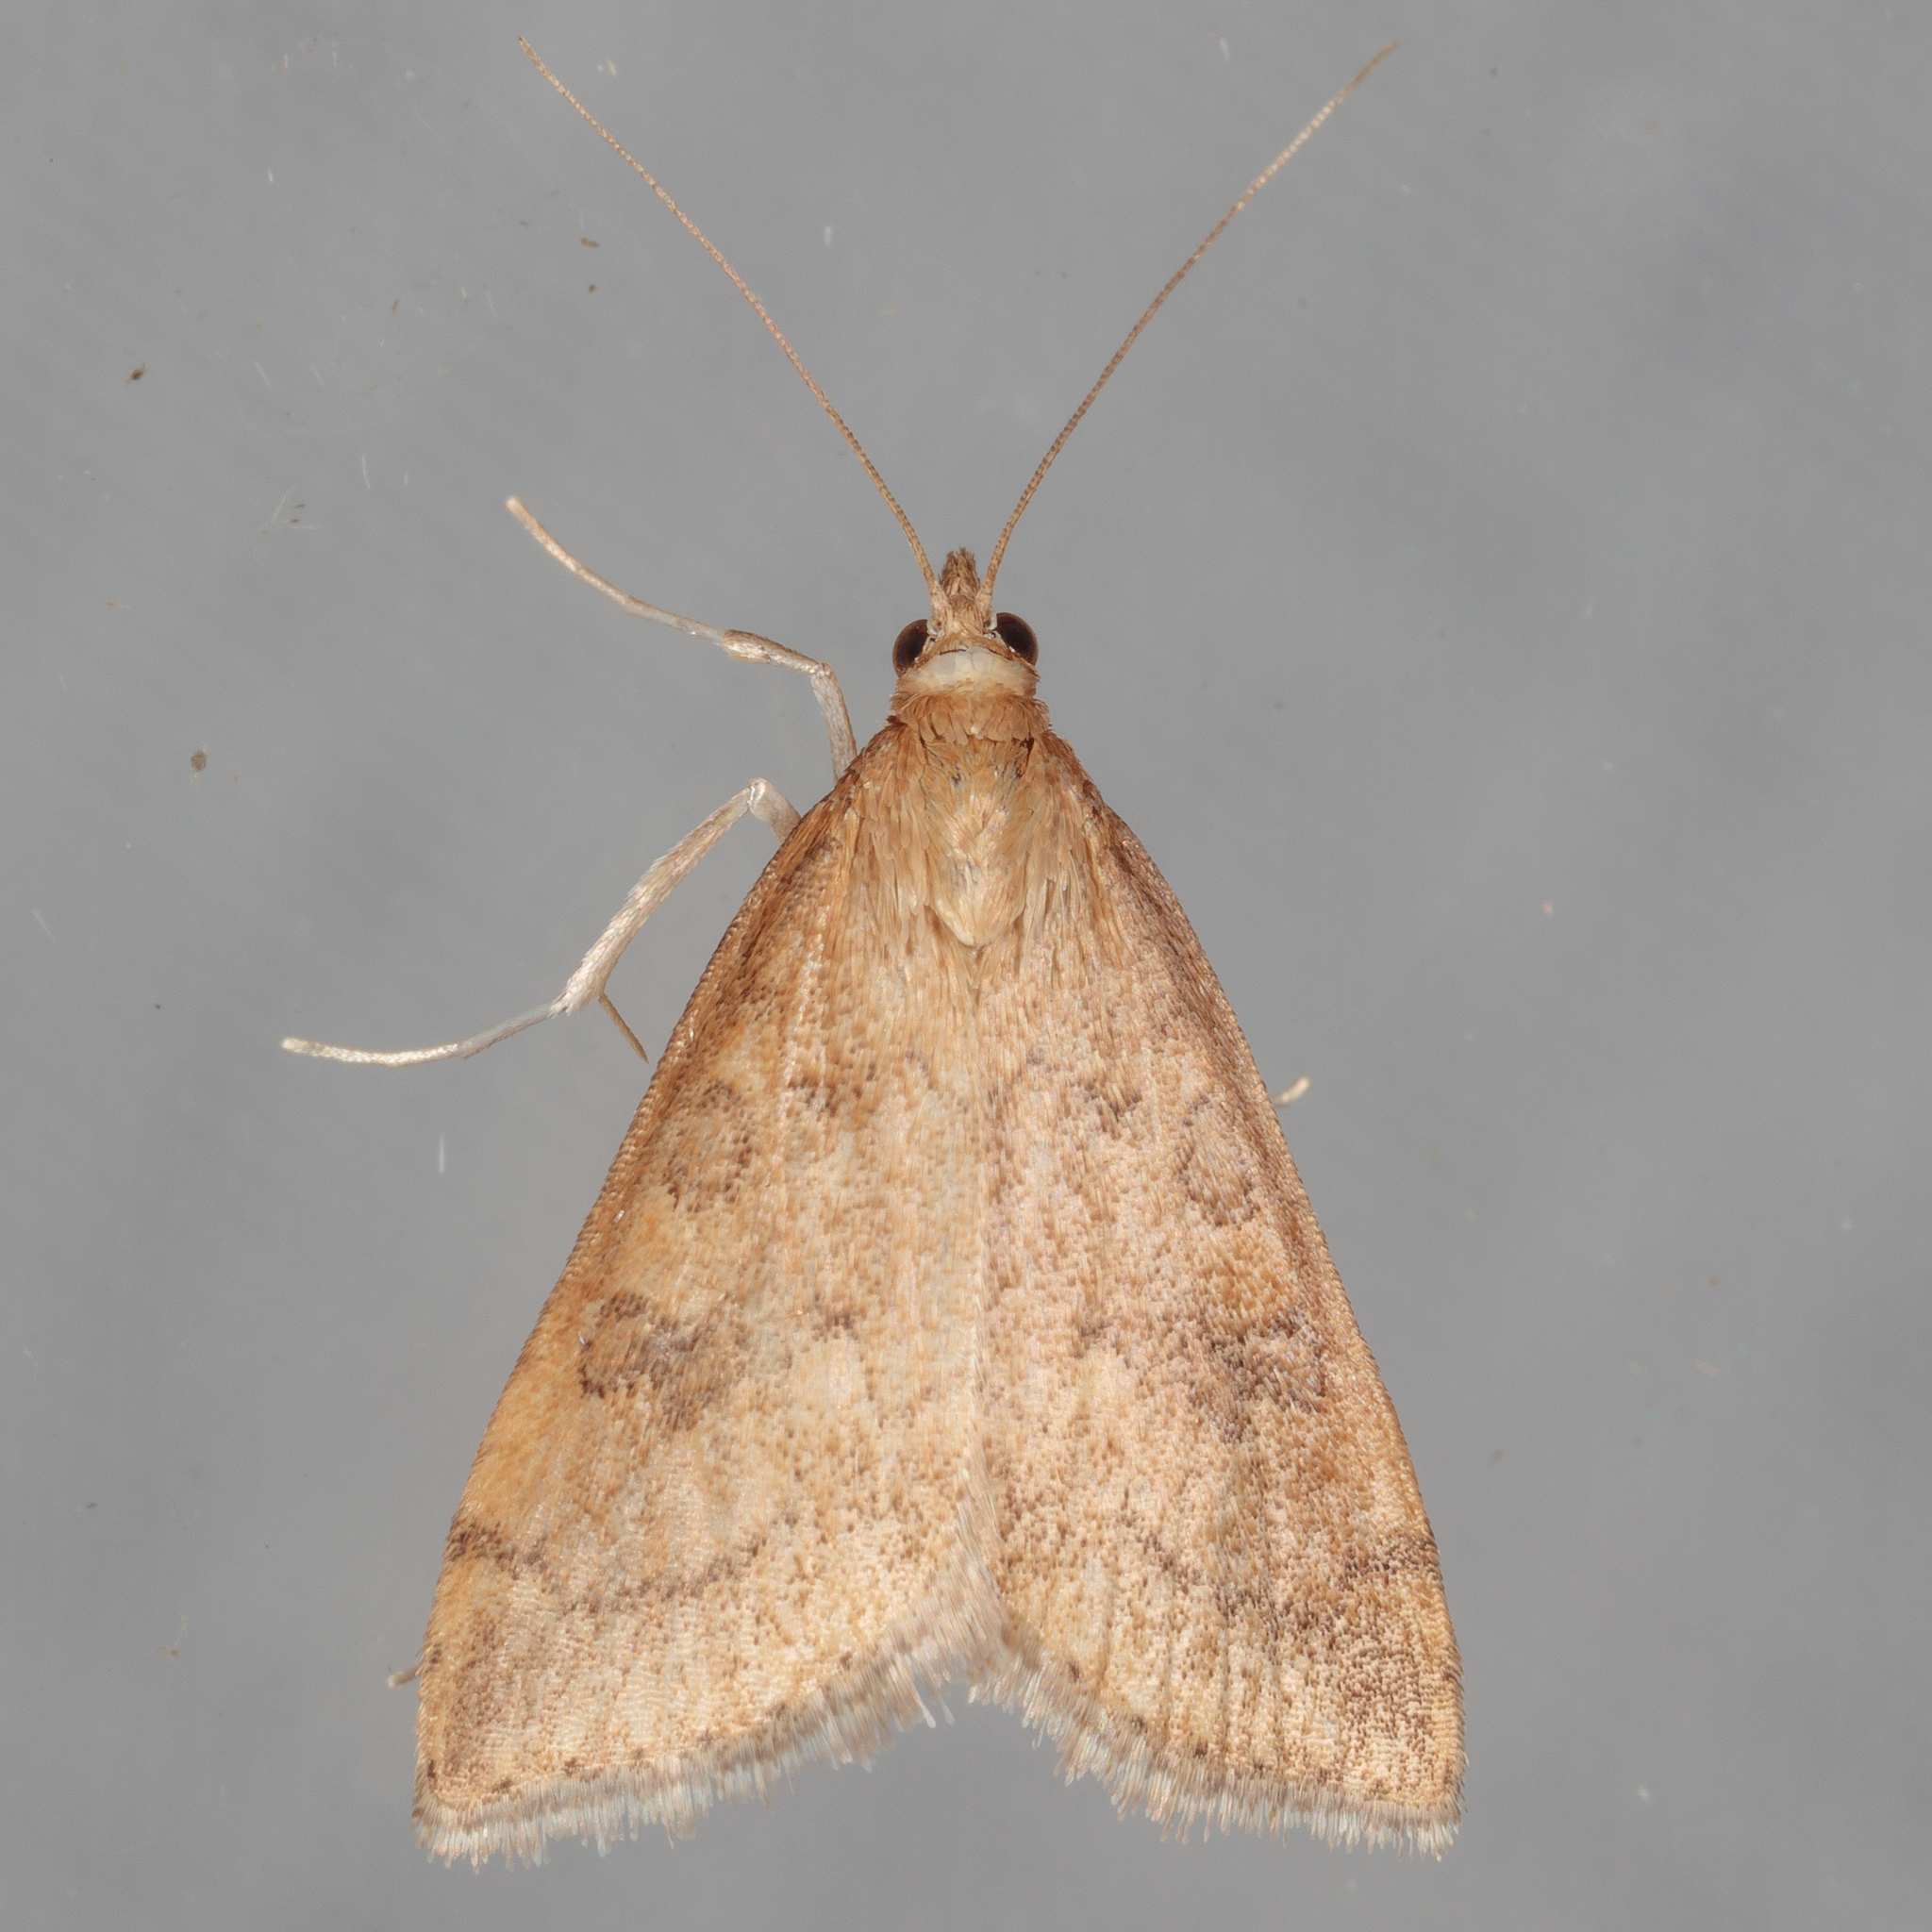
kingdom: Animalia
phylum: Arthropoda
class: Insecta
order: Lepidoptera
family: Crambidae
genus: Udea
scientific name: Udea rubigalis
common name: Celery leaftier moth
